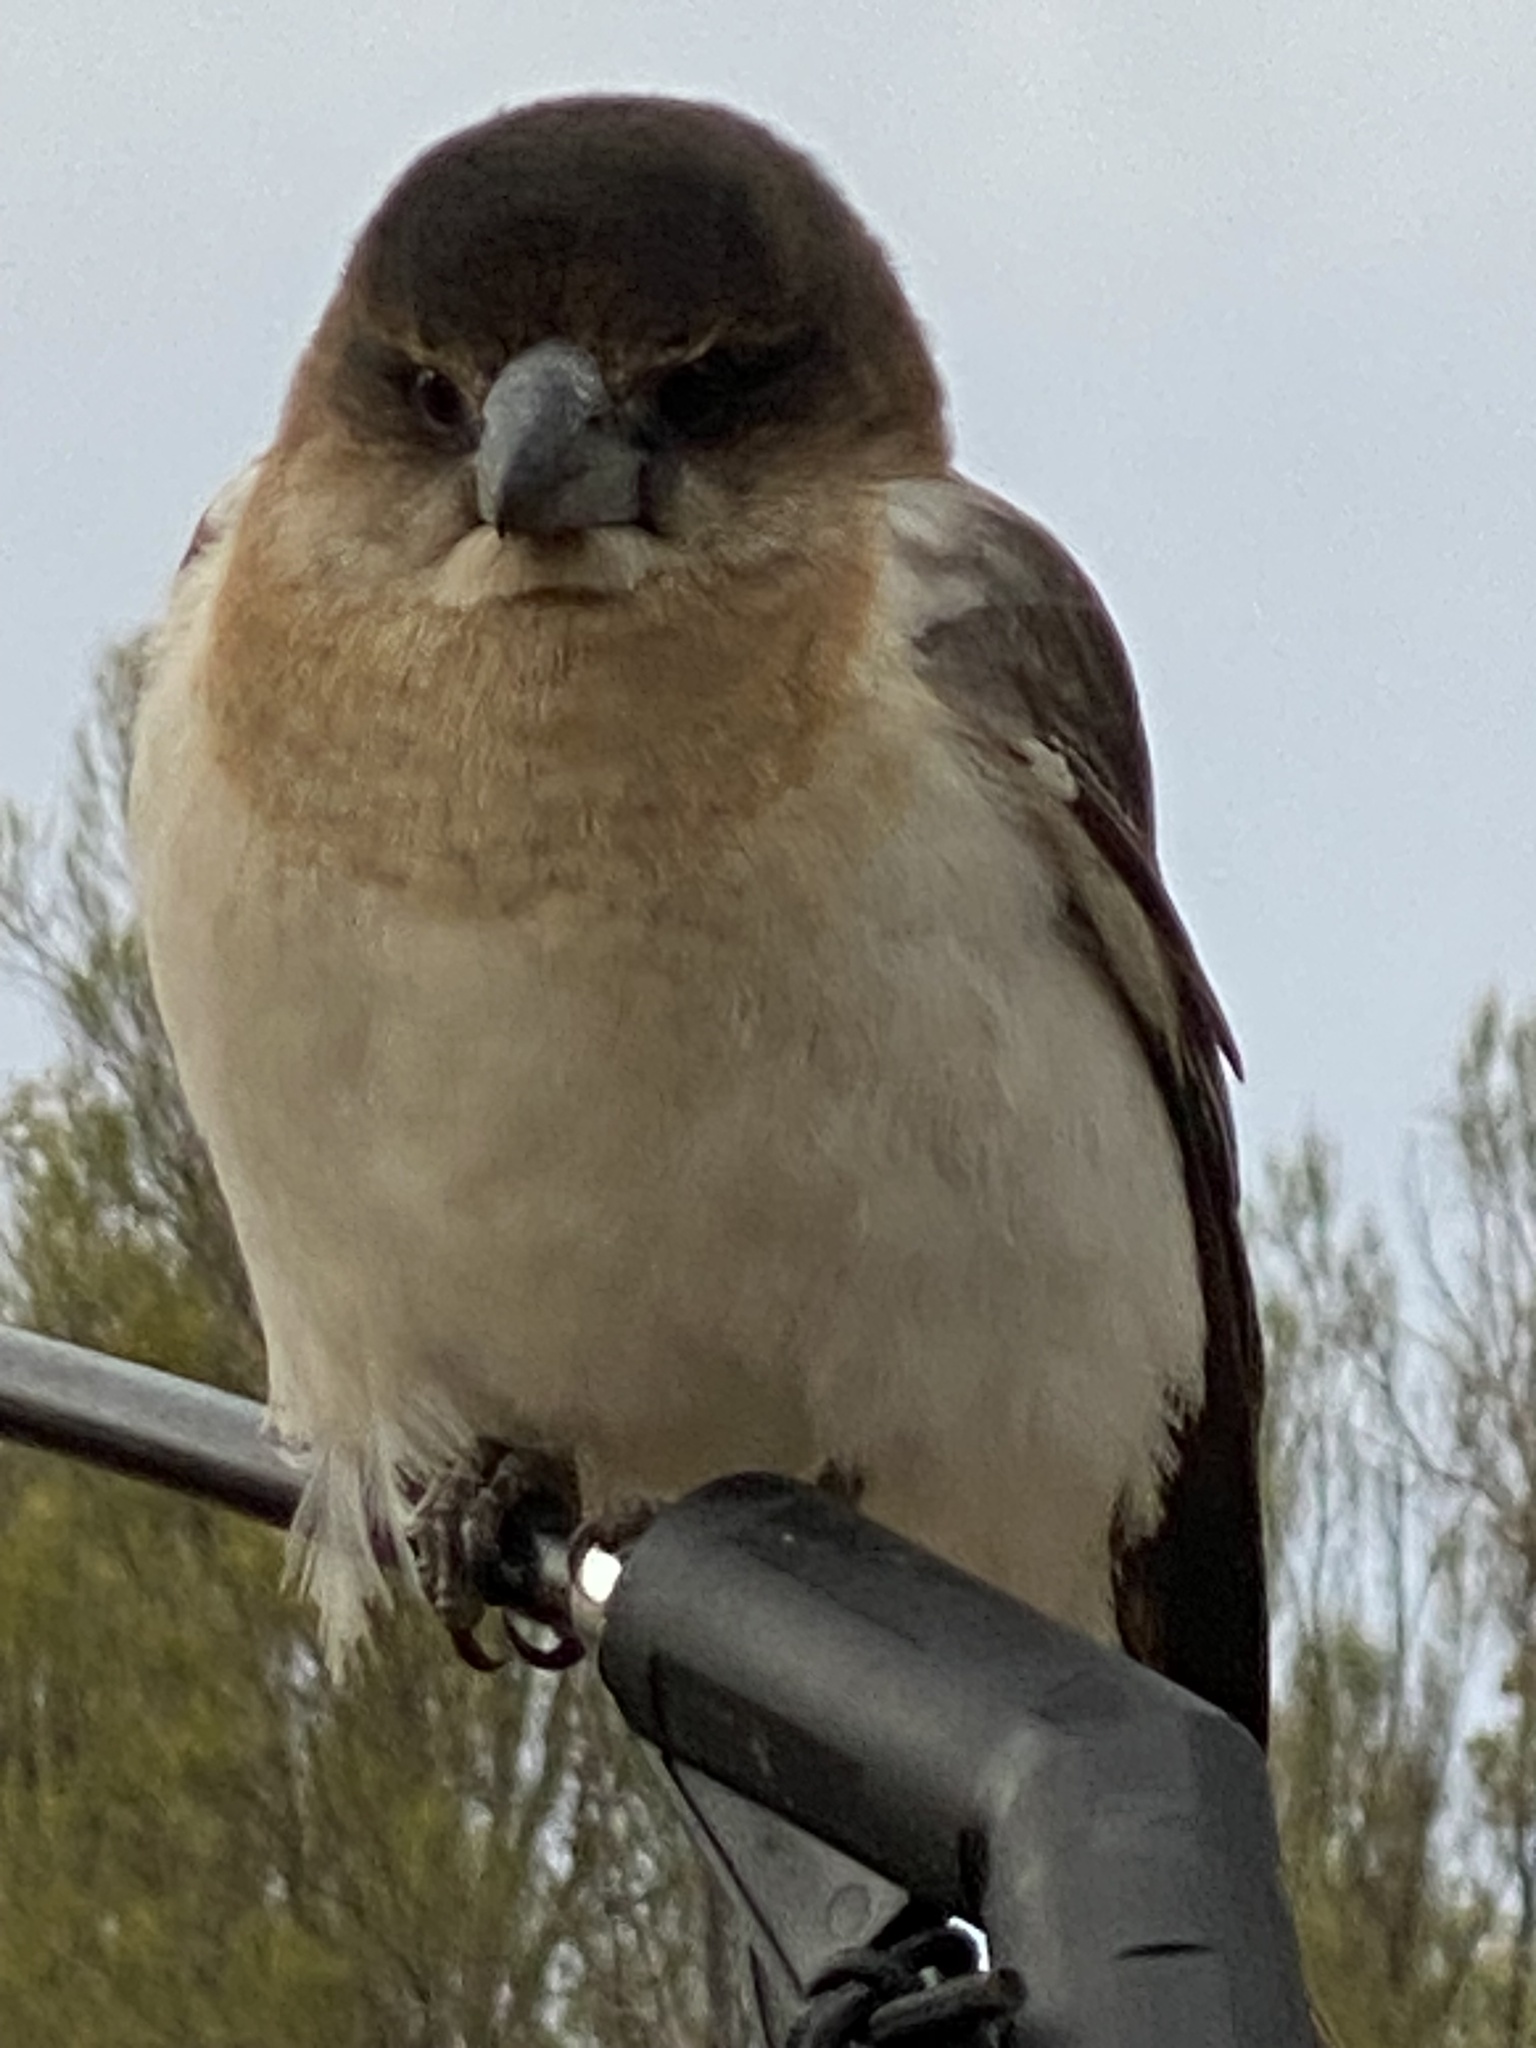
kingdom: Animalia
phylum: Chordata
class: Aves
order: Passeriformes
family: Cracticidae
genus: Cracticus
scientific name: Cracticus nigrogularis
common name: Pied butcherbird
